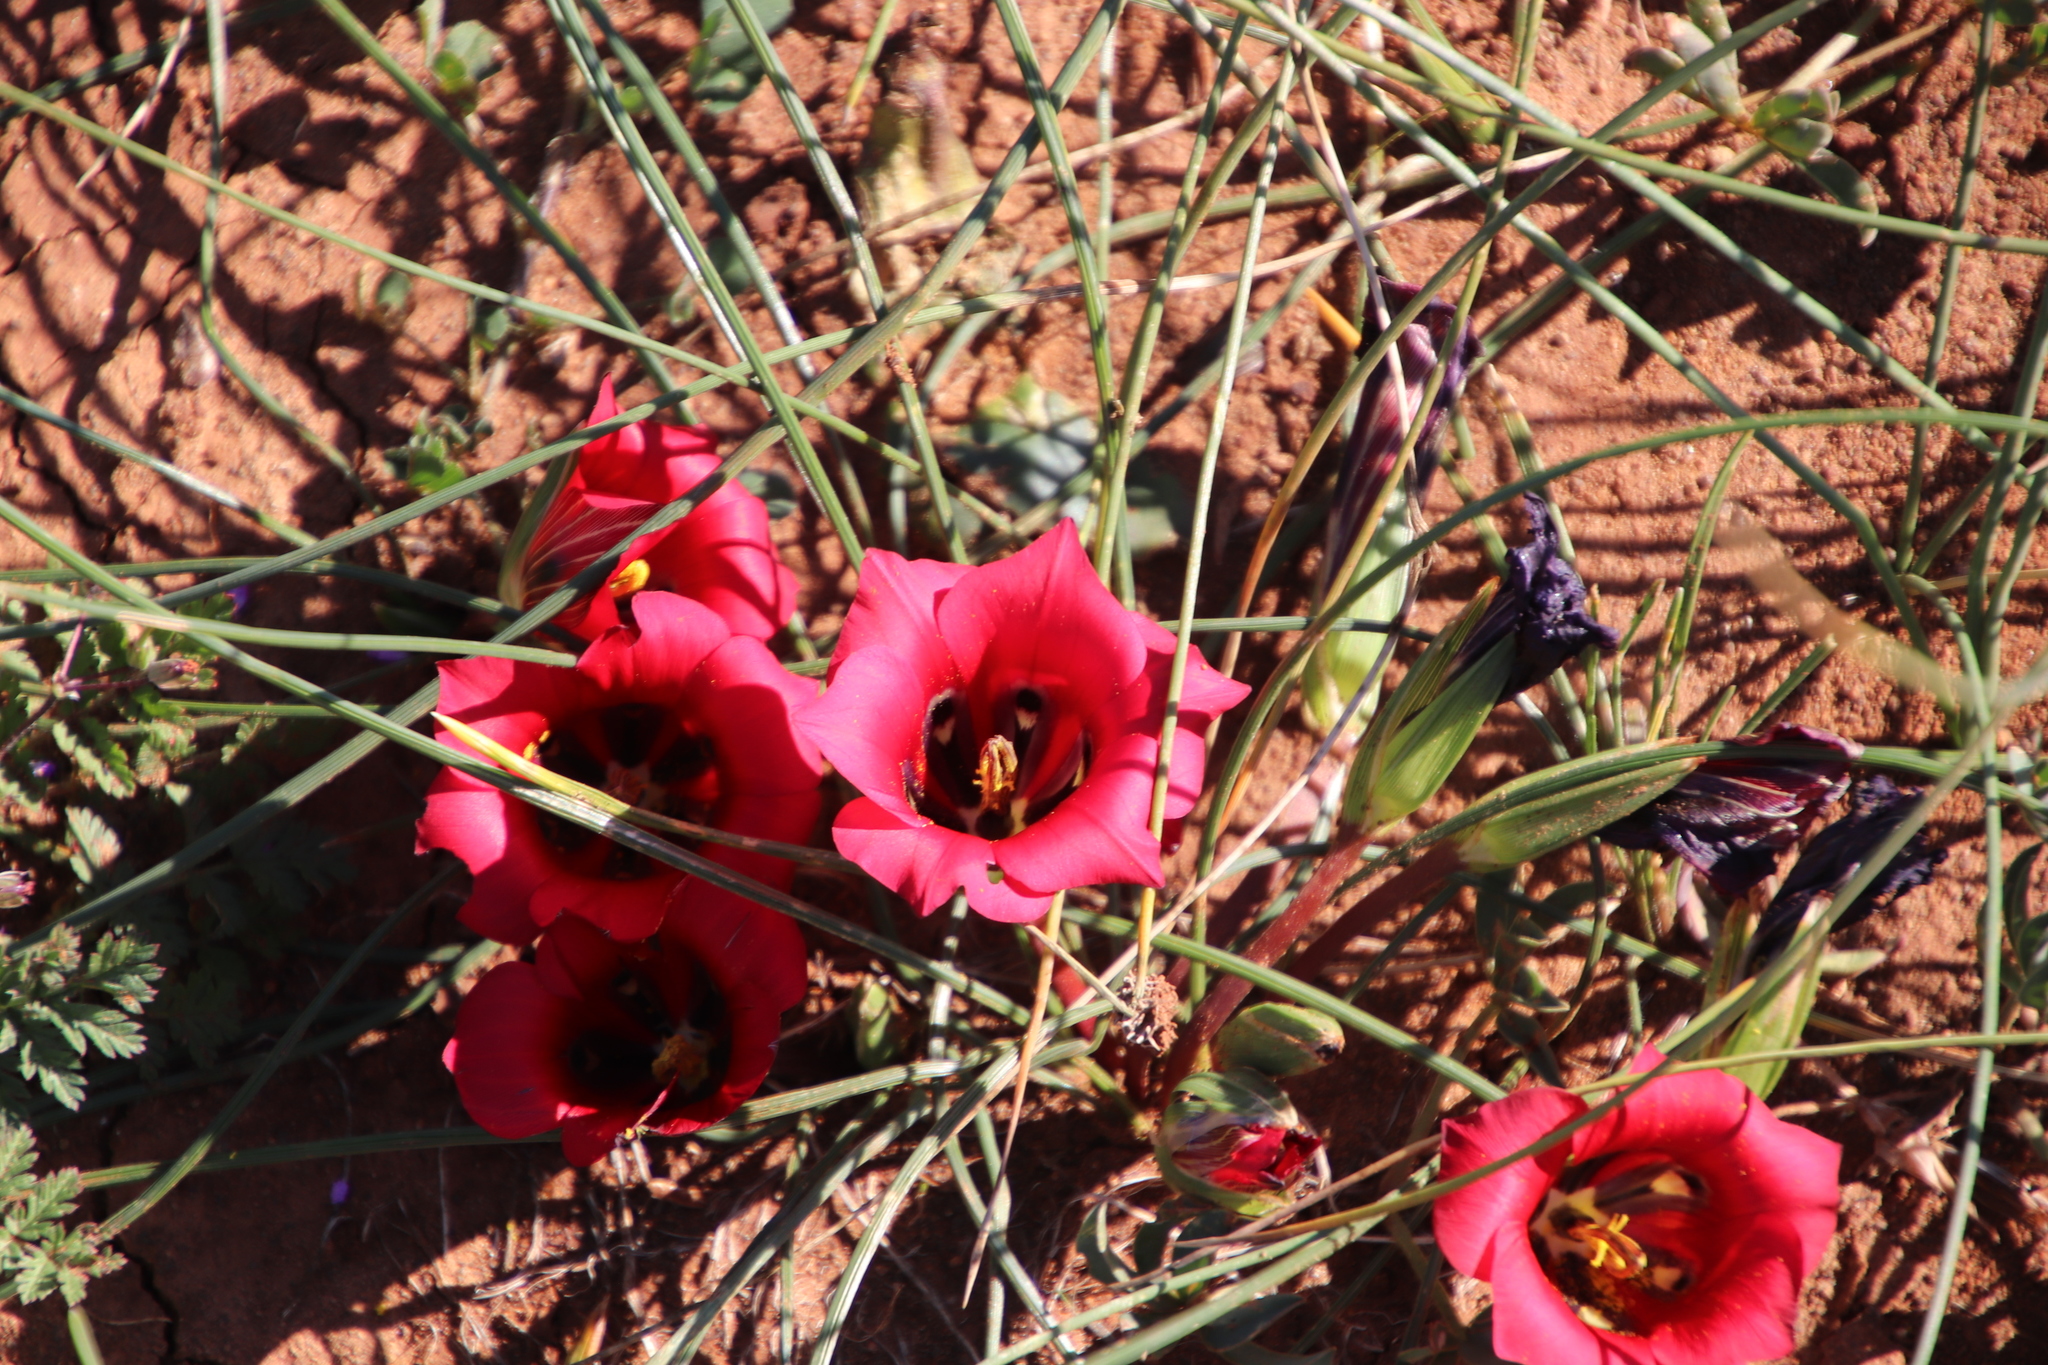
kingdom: Plantae
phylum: Tracheophyta
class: Liliopsida
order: Asparagales
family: Iridaceae
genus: Romulea
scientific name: Romulea monadelpha
